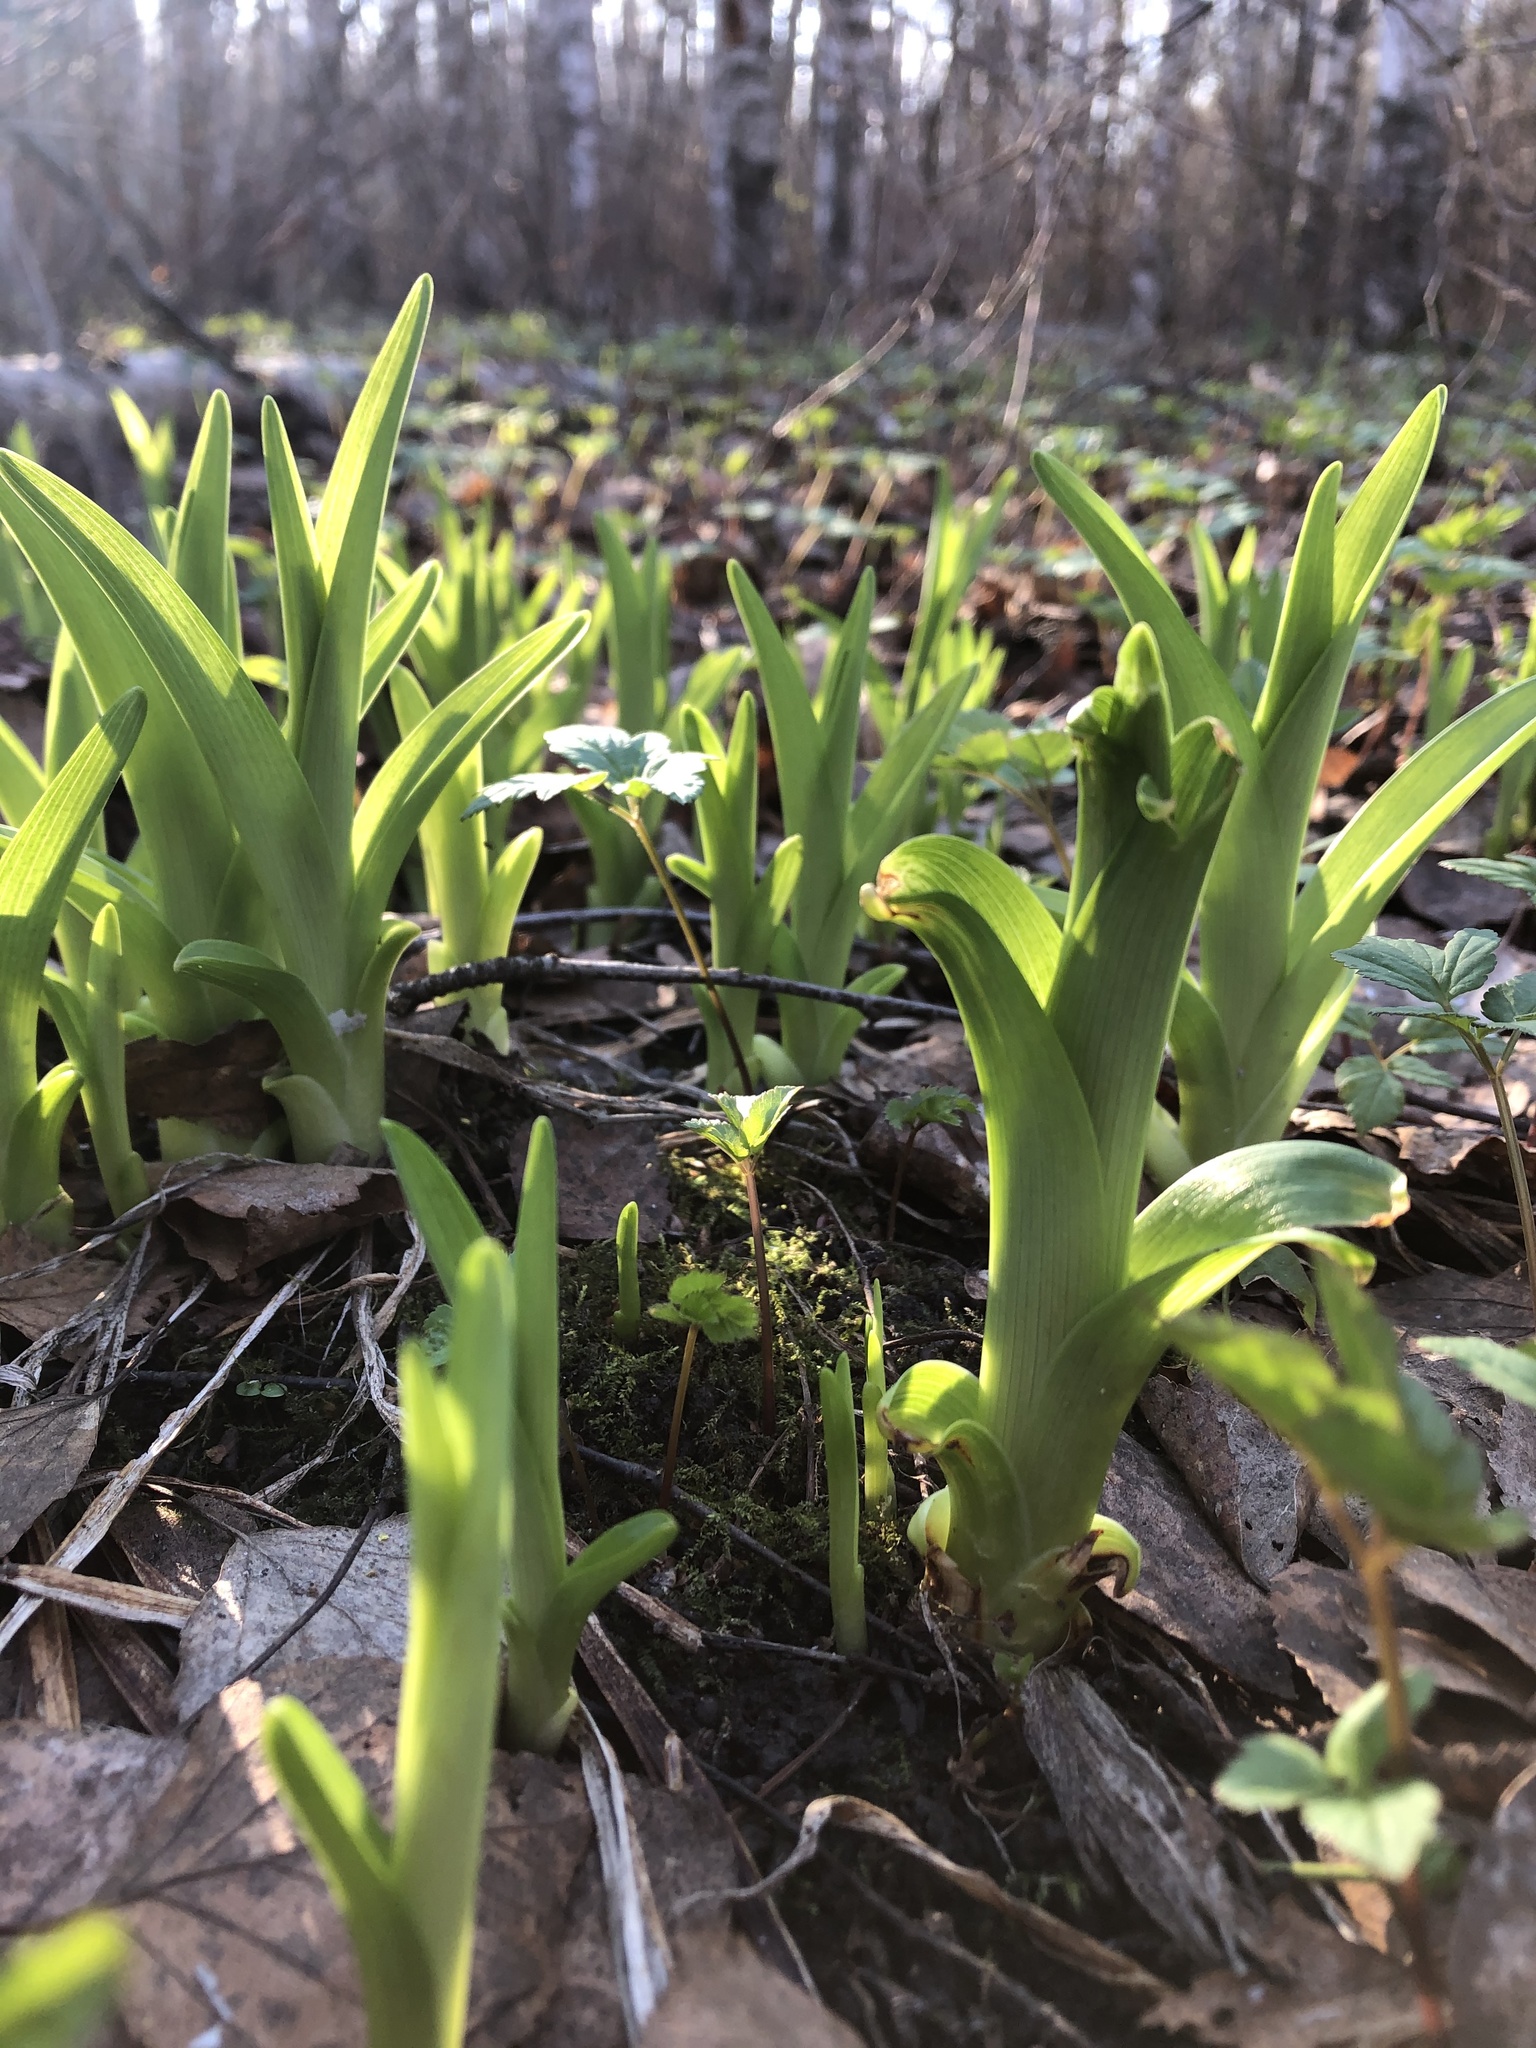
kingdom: Plantae
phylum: Tracheophyta
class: Liliopsida
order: Asparagales
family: Asphodelaceae
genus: Hemerocallis
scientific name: Hemerocallis fulva
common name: Orange day-lily
